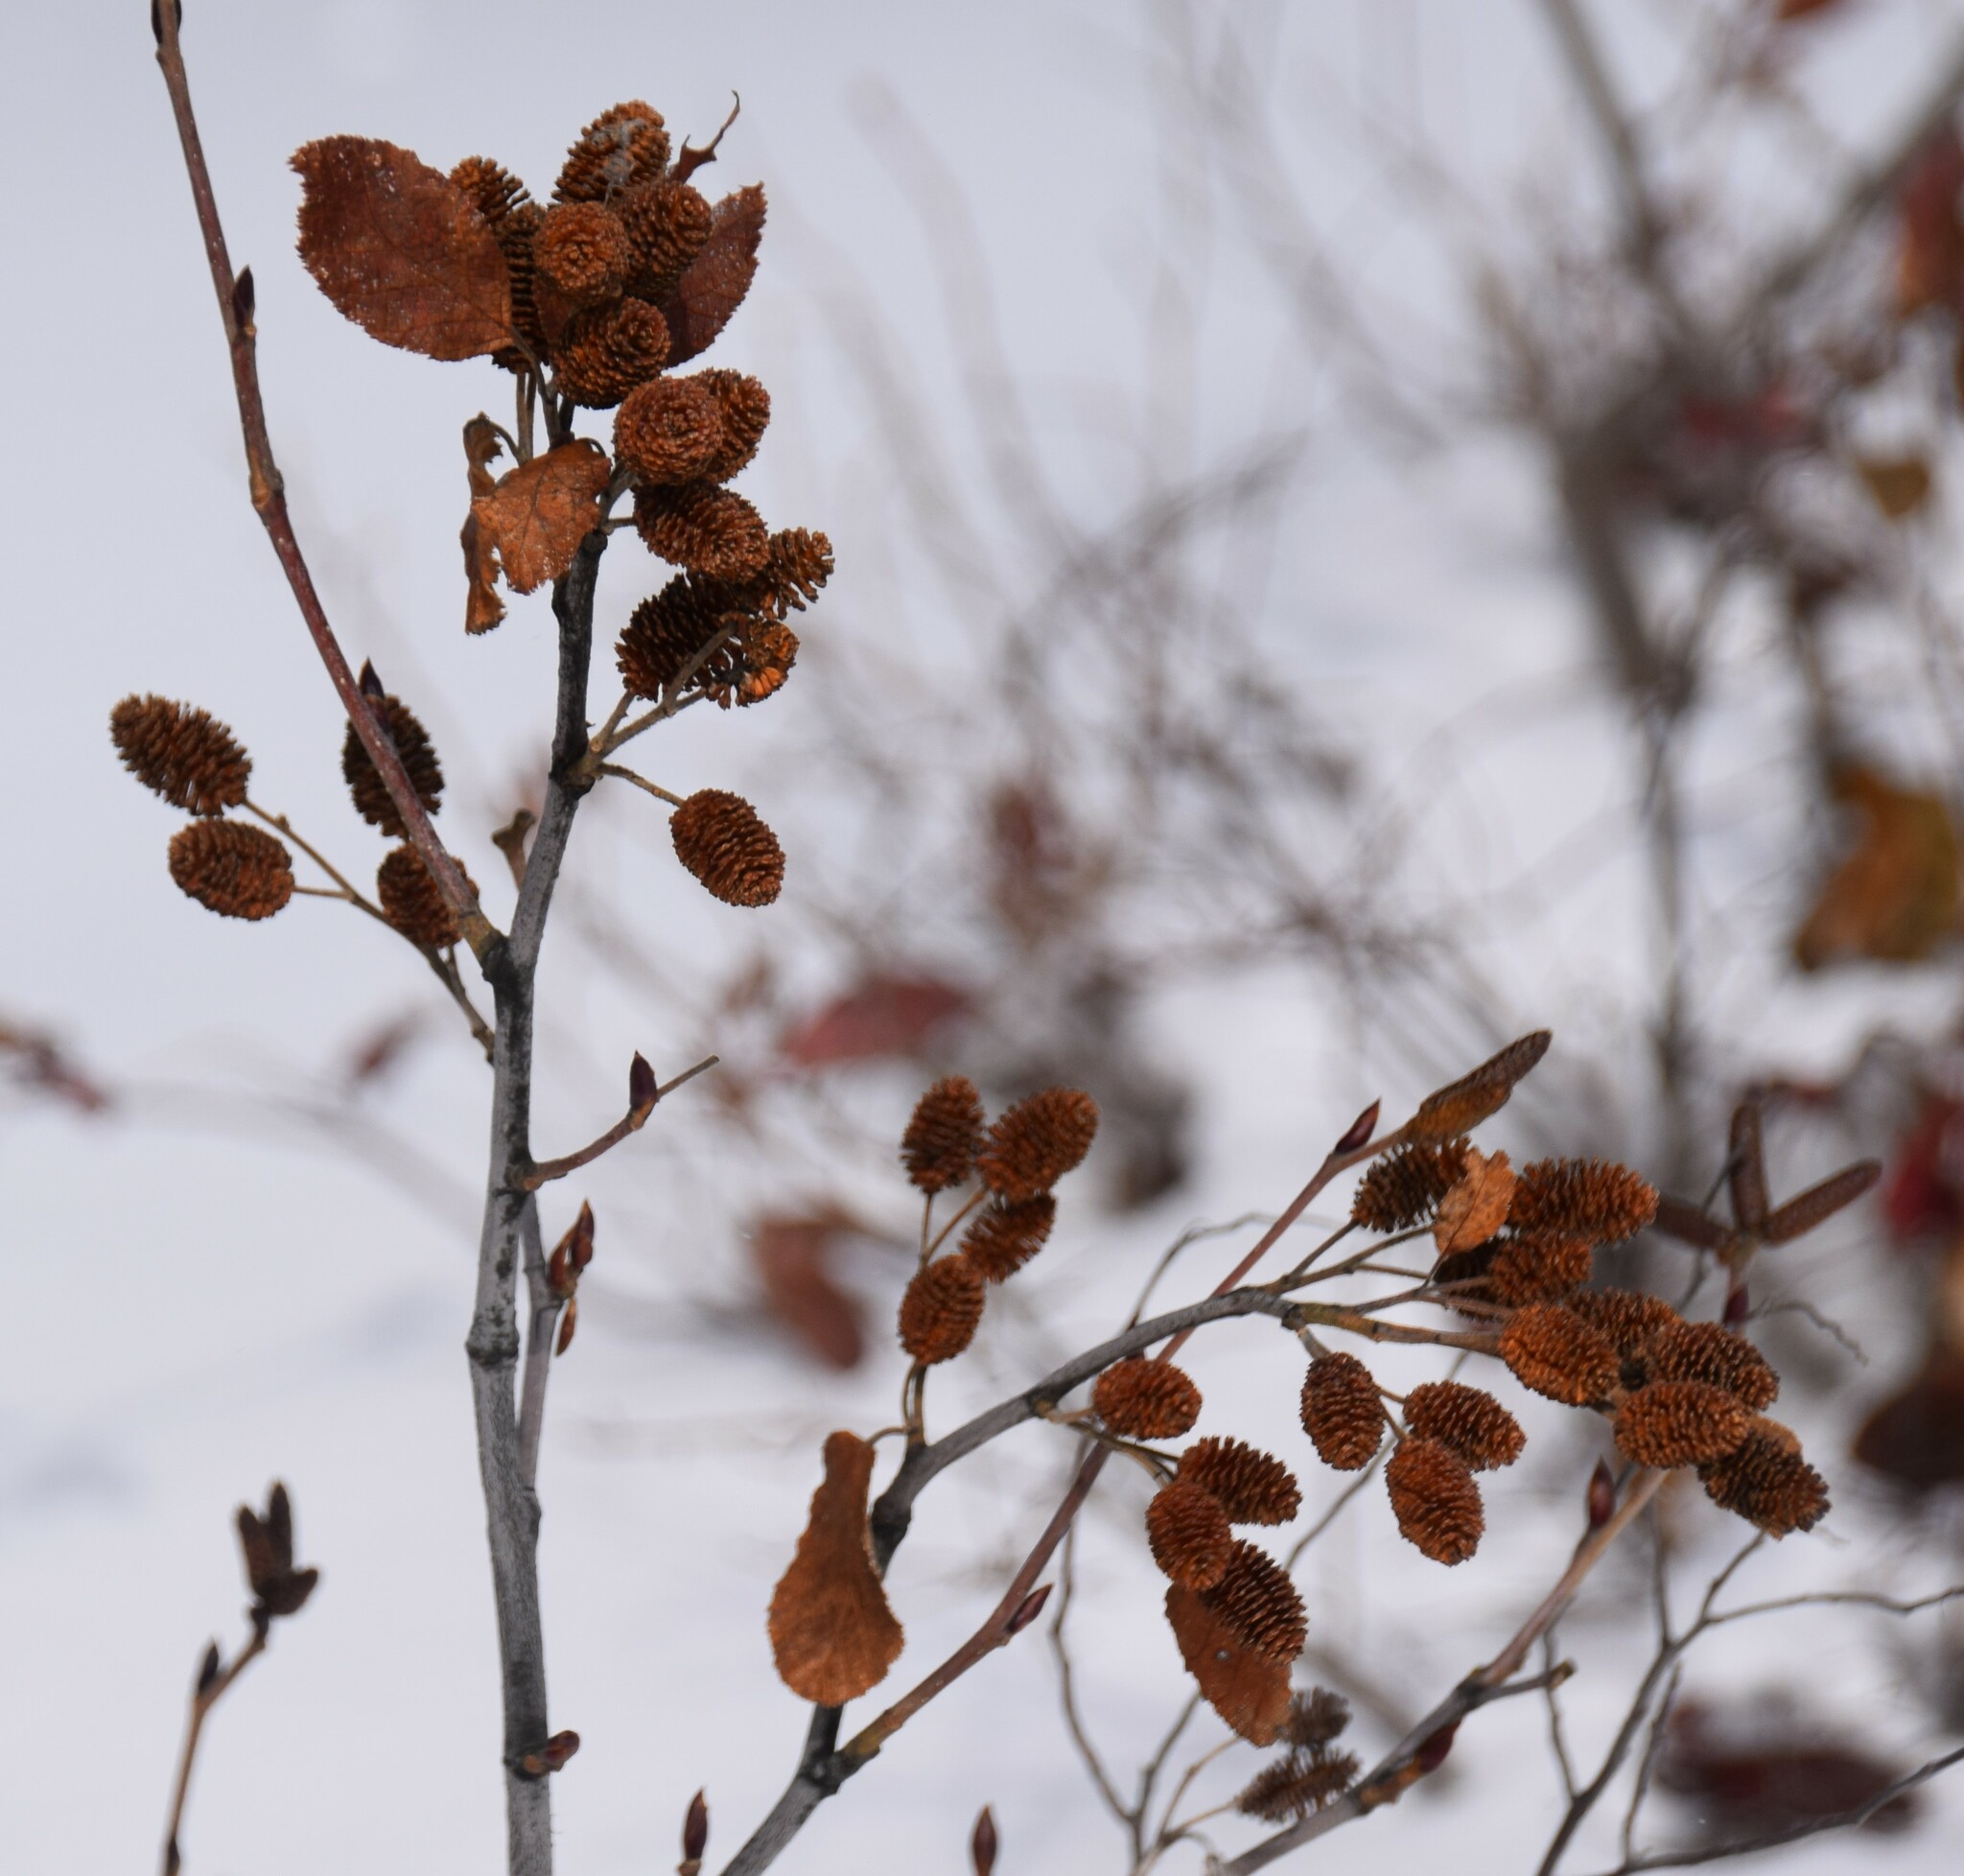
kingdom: Plantae
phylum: Tracheophyta
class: Magnoliopsida
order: Fagales
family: Betulaceae
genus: Alnus
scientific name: Alnus alnobetula
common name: Green alder
